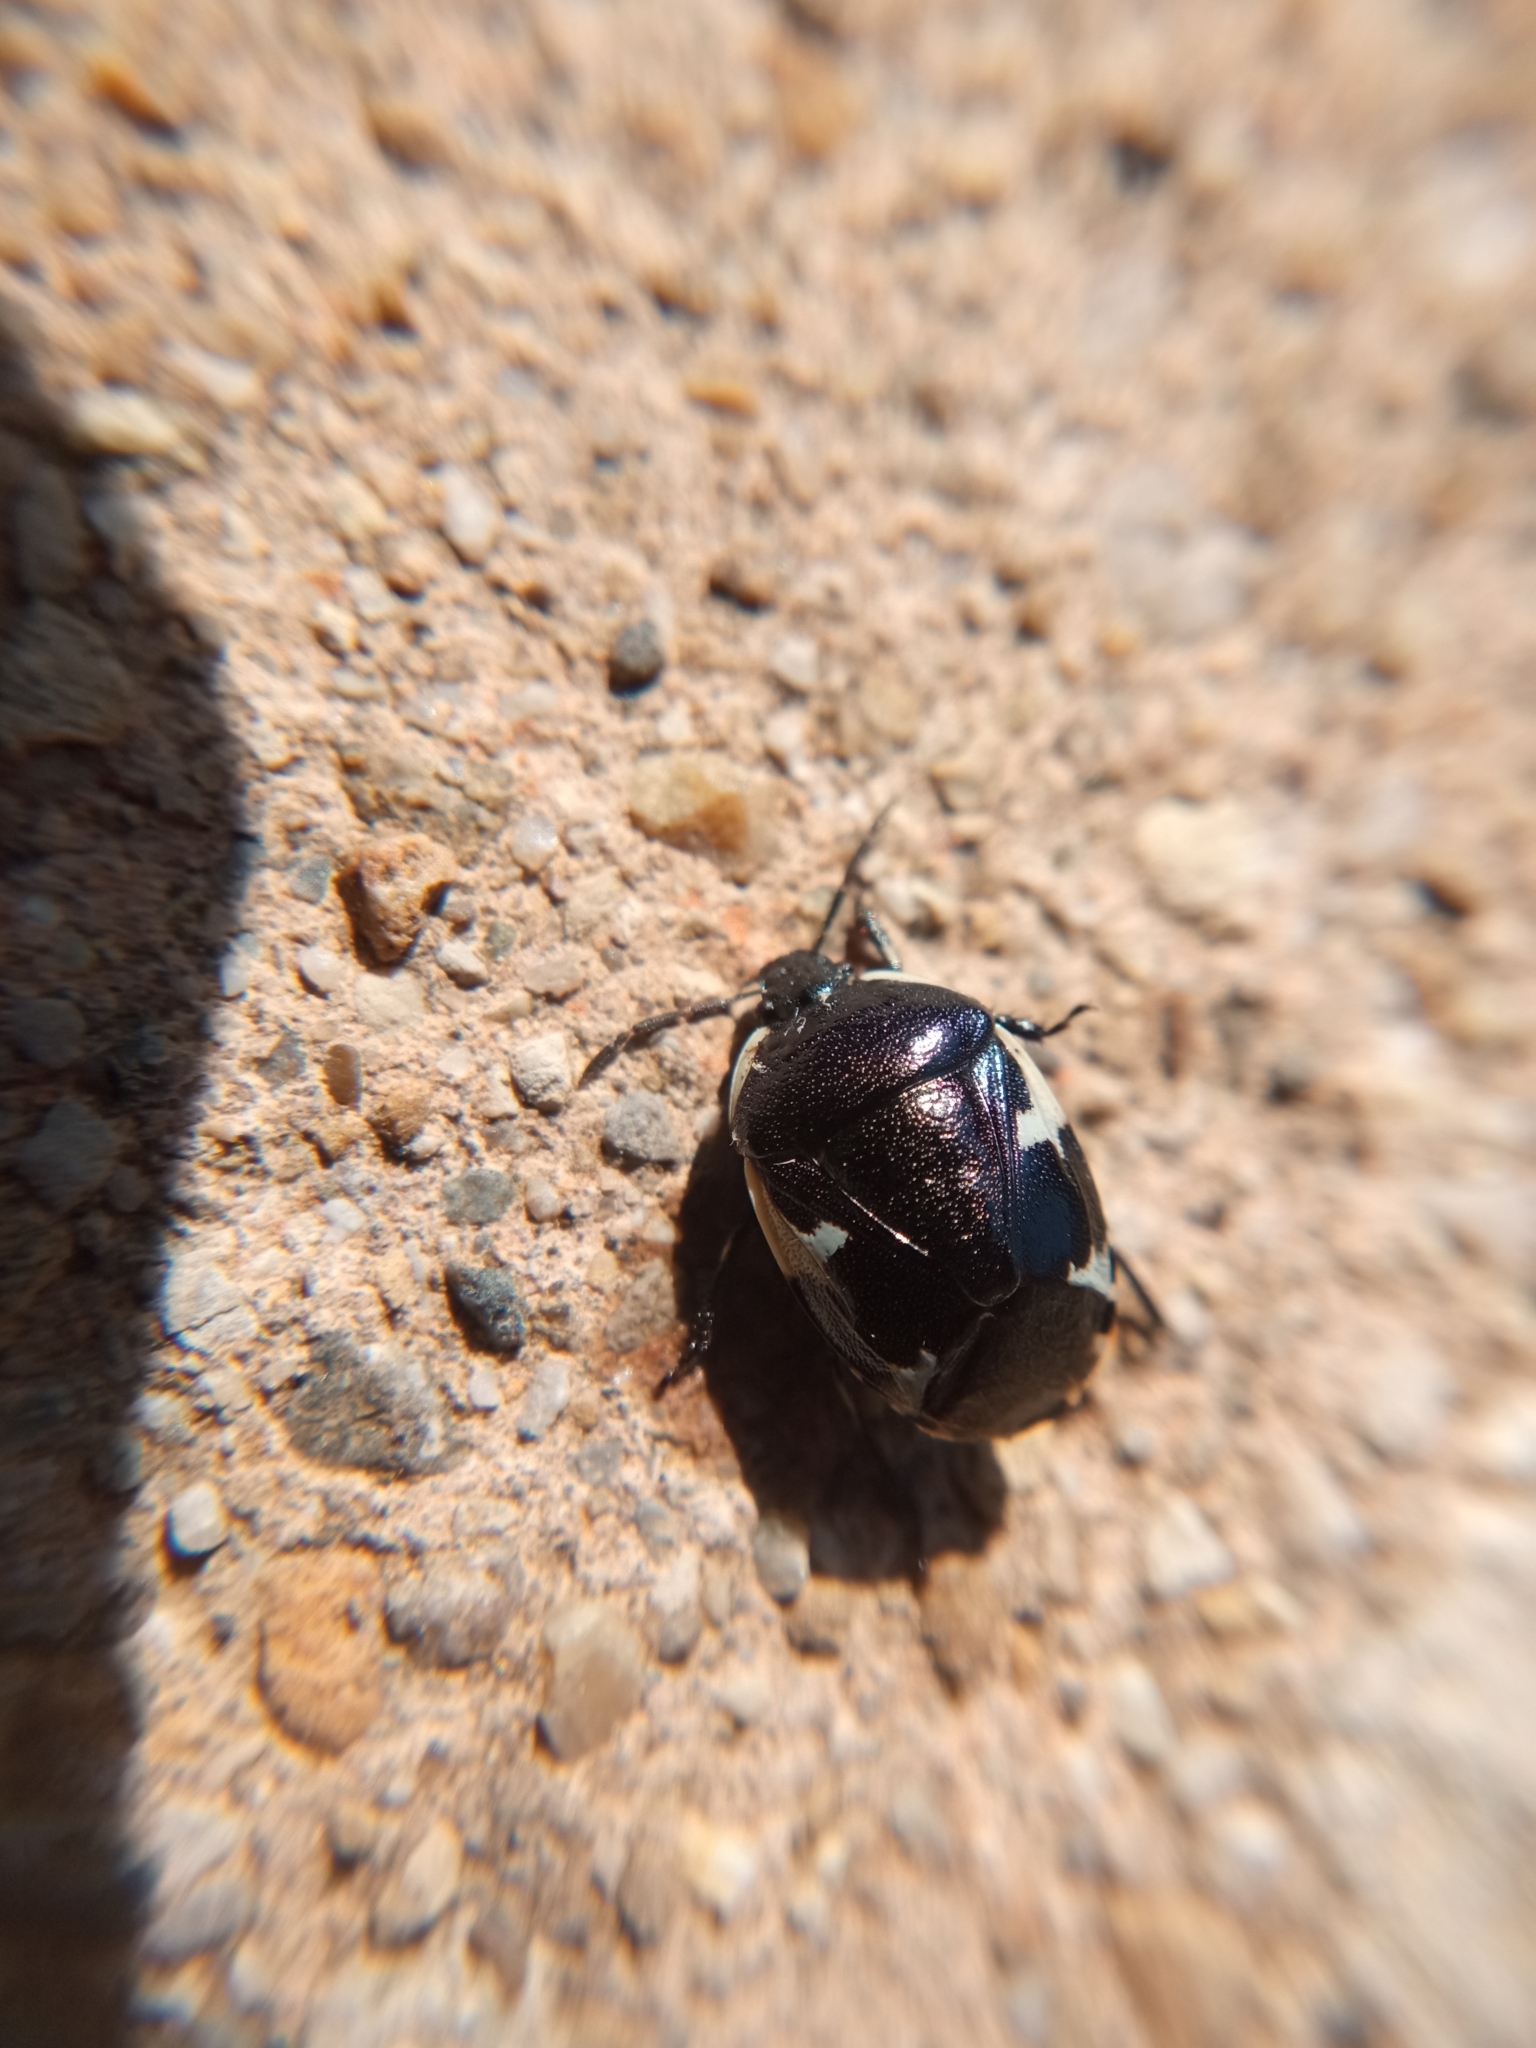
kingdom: Animalia
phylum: Arthropoda
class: Insecta
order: Hemiptera
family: Cydnidae
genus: Tritomegas
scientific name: Tritomegas sexmaculatus
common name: Rambur's pied shieldbug
